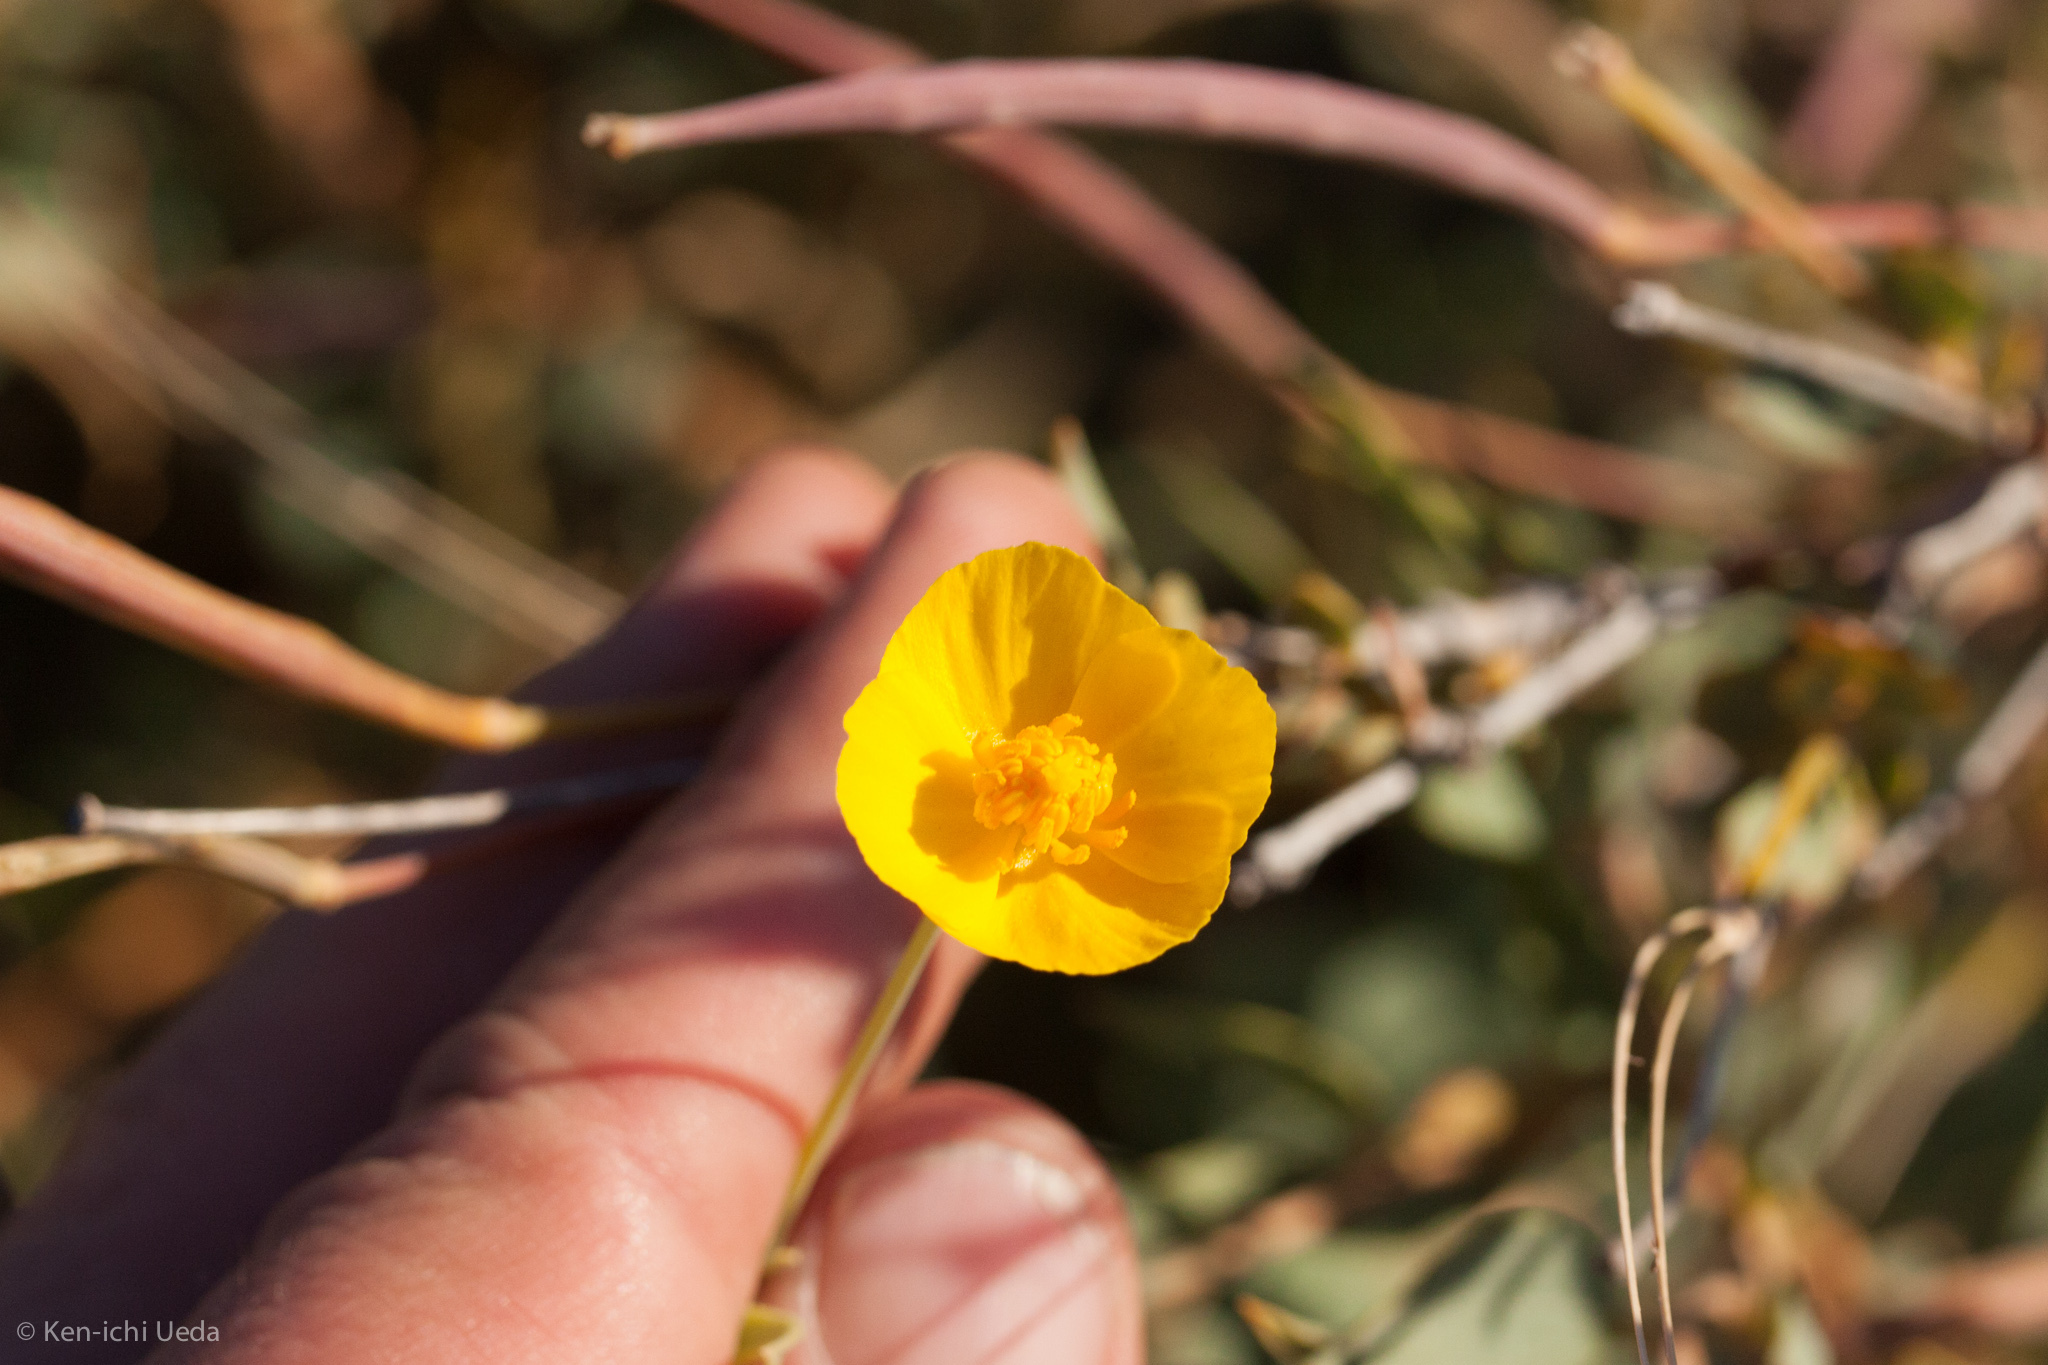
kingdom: Plantae
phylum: Tracheophyta
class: Magnoliopsida
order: Ranunculales
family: Papaveraceae
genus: Dendromecon
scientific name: Dendromecon rigida
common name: Tree poppy
